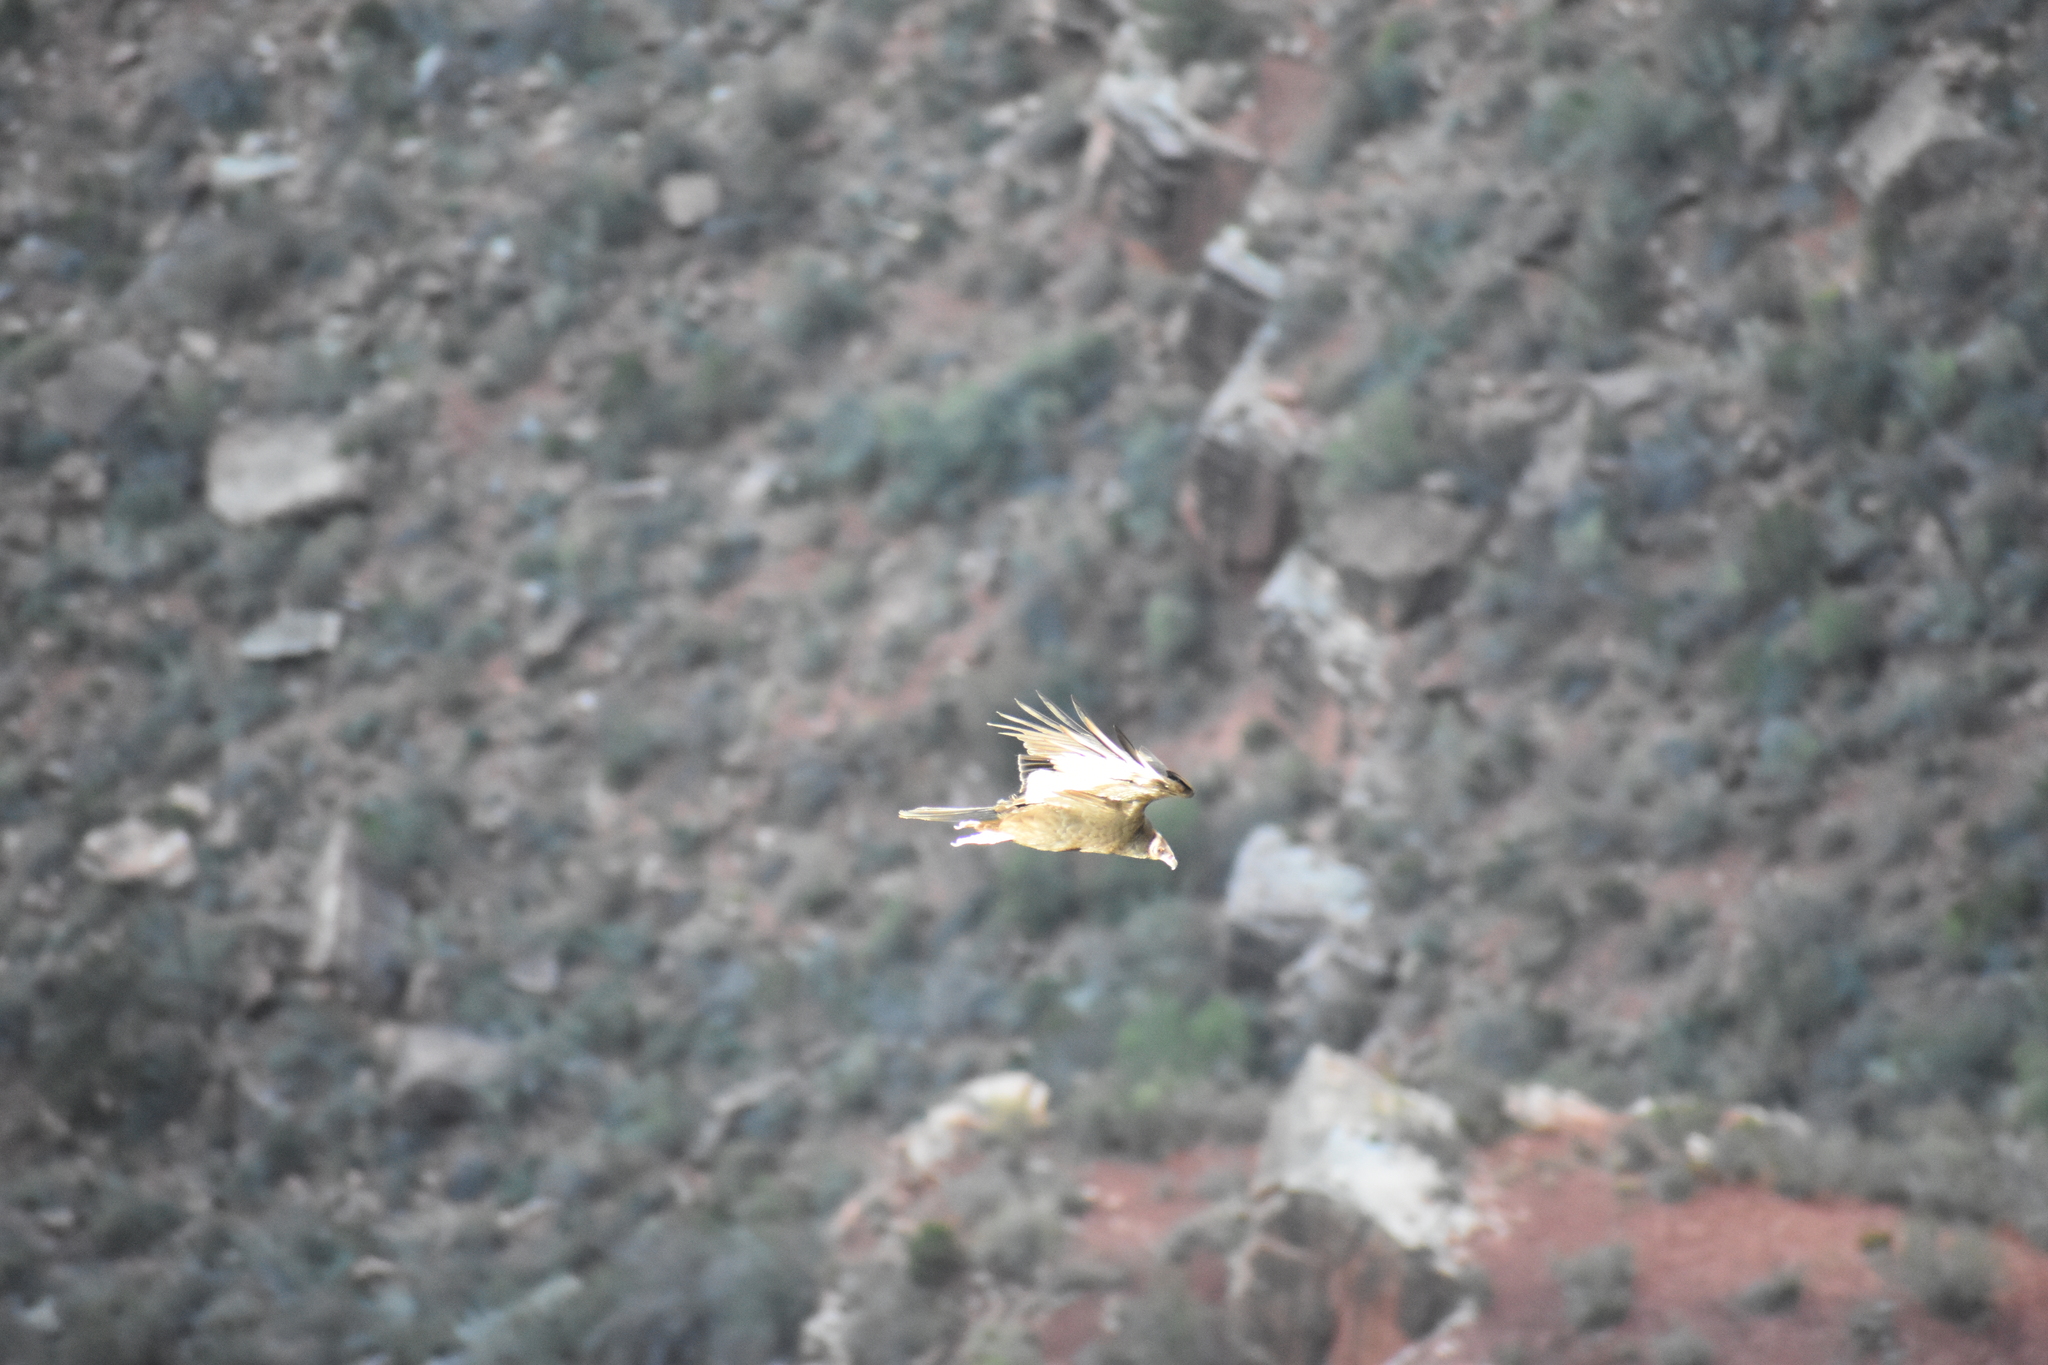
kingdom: Animalia
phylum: Chordata
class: Aves
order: Accipitriformes
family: Cathartidae
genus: Cathartes
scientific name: Cathartes aura
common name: Turkey vulture
